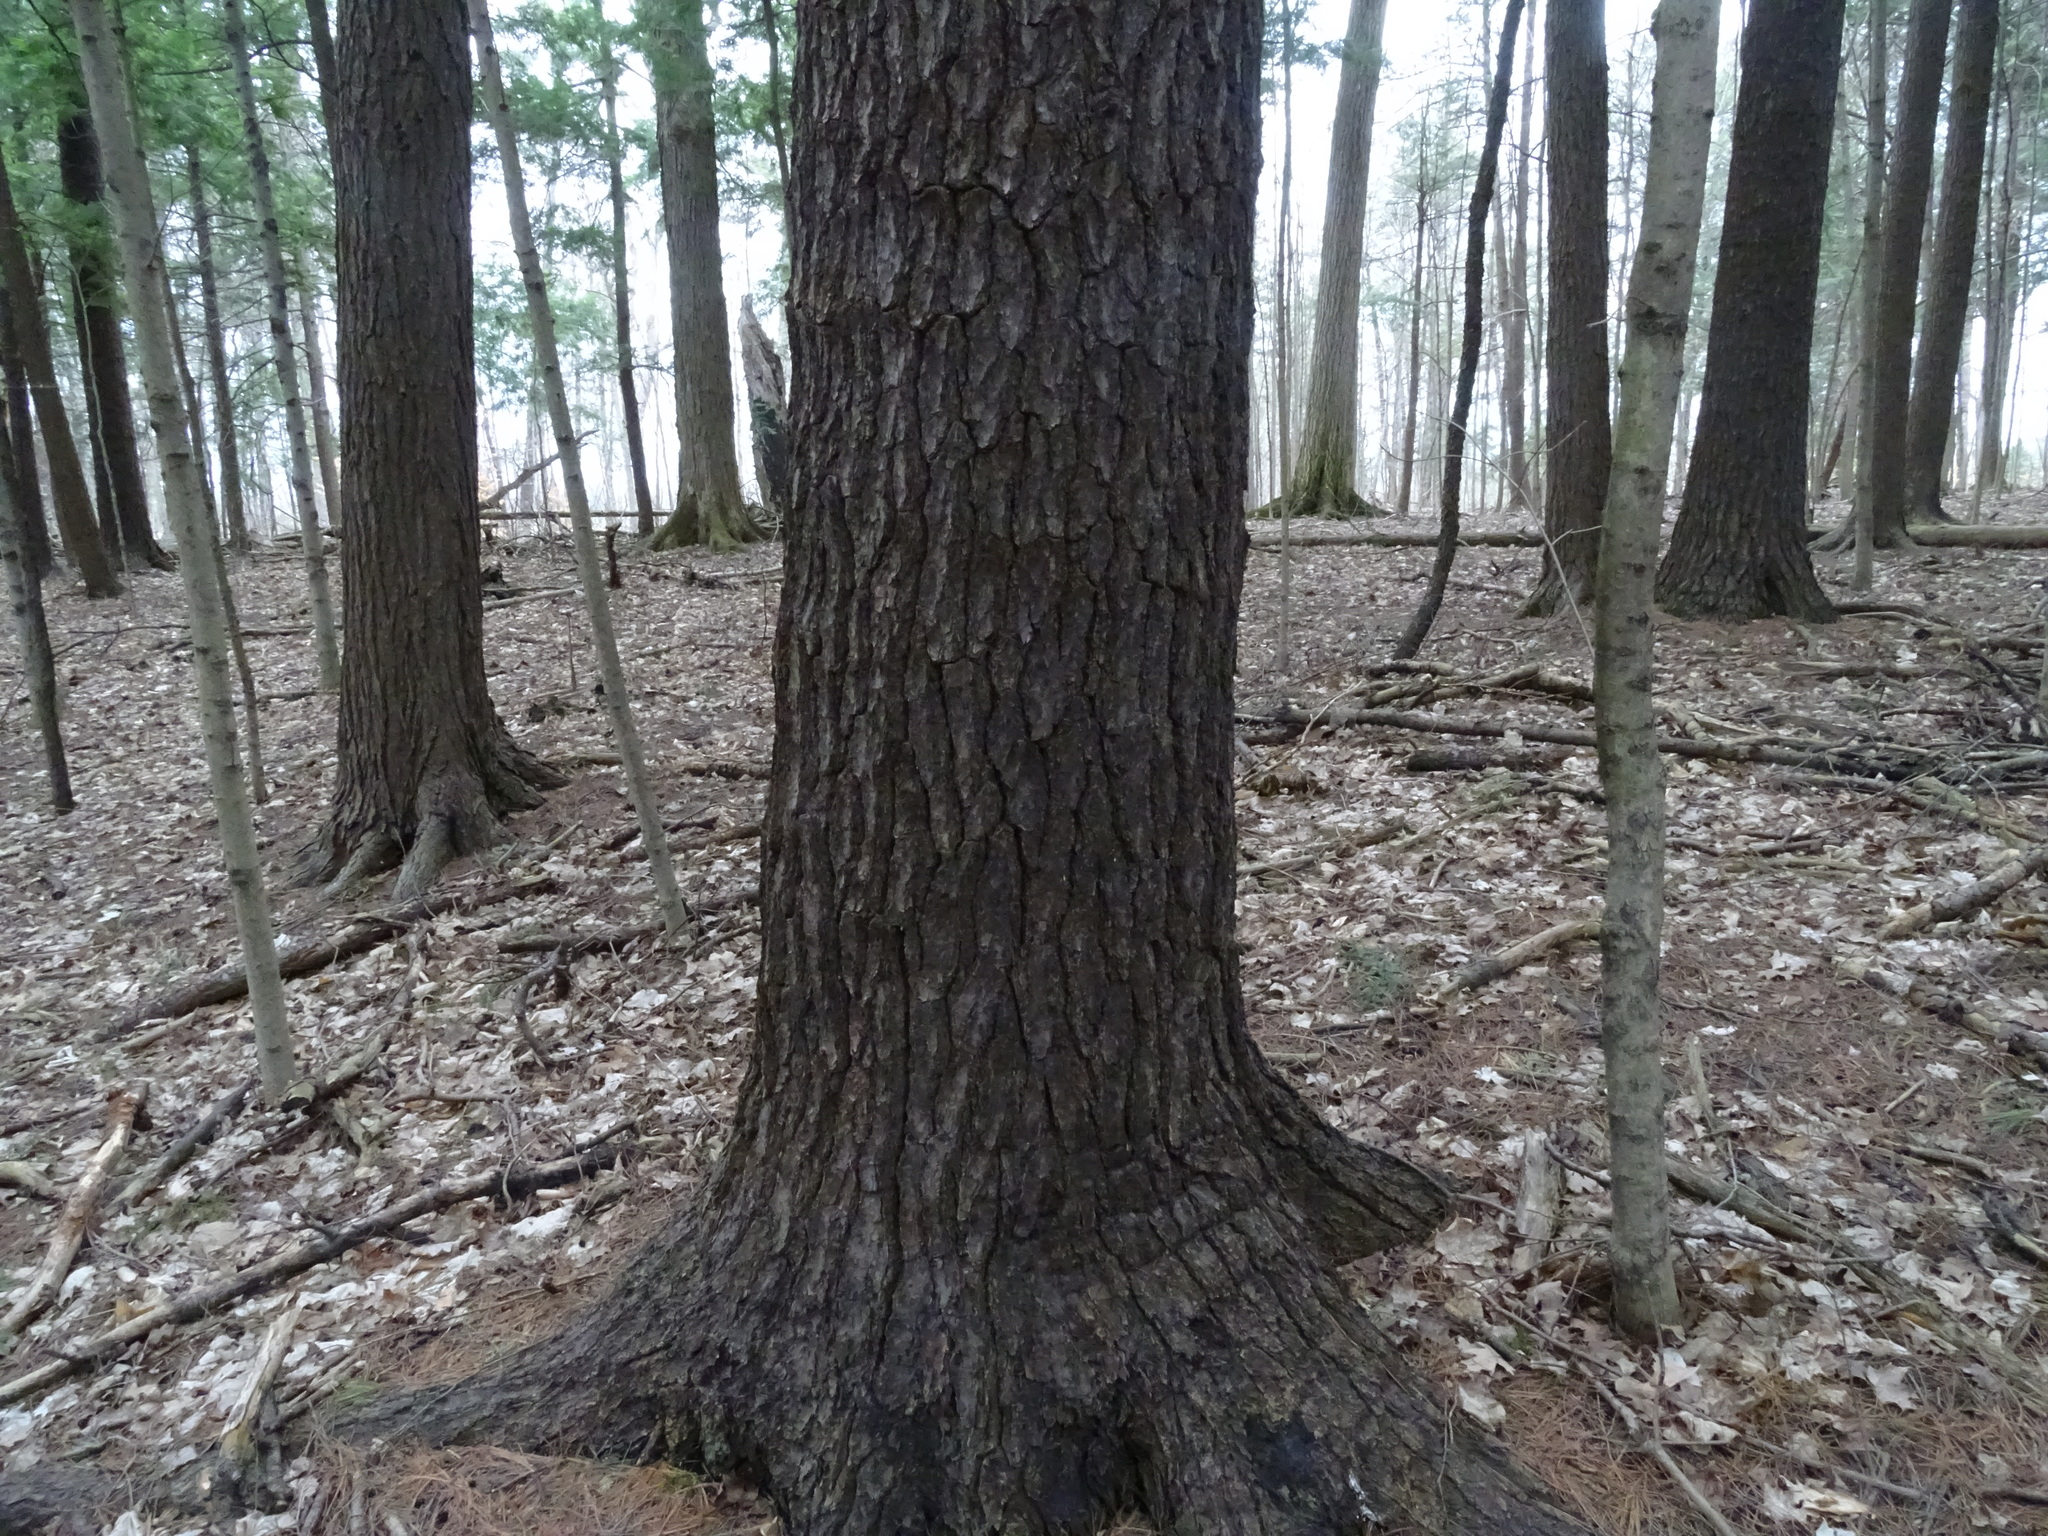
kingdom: Plantae
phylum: Tracheophyta
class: Pinopsida
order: Pinales
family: Pinaceae
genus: Pinus
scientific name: Pinus strobus
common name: Weymouth pine
